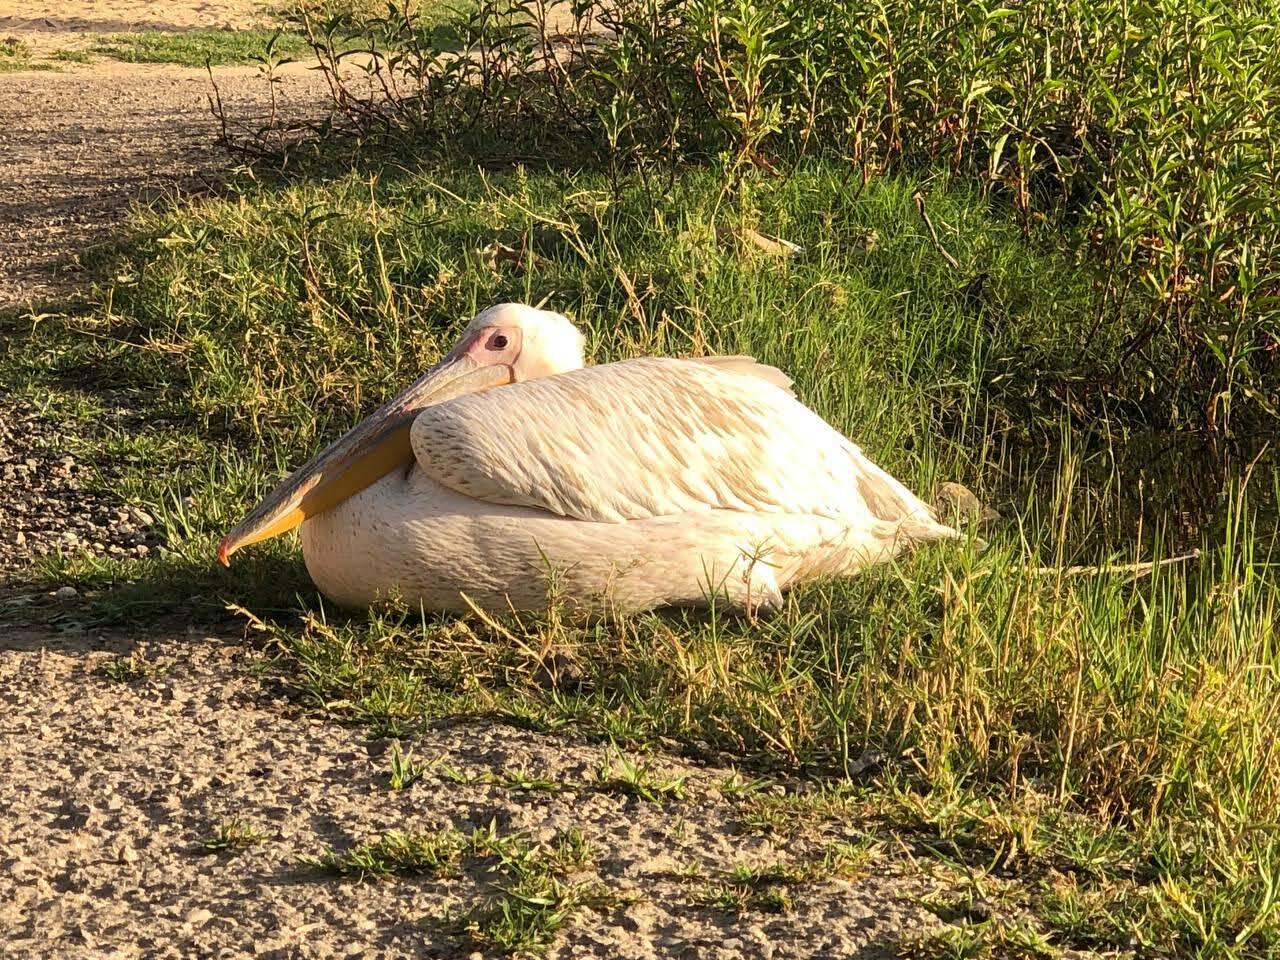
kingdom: Animalia
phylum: Chordata
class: Aves
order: Pelecaniformes
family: Pelecanidae
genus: Pelecanus
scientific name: Pelecanus onocrotalus
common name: Great white pelican
